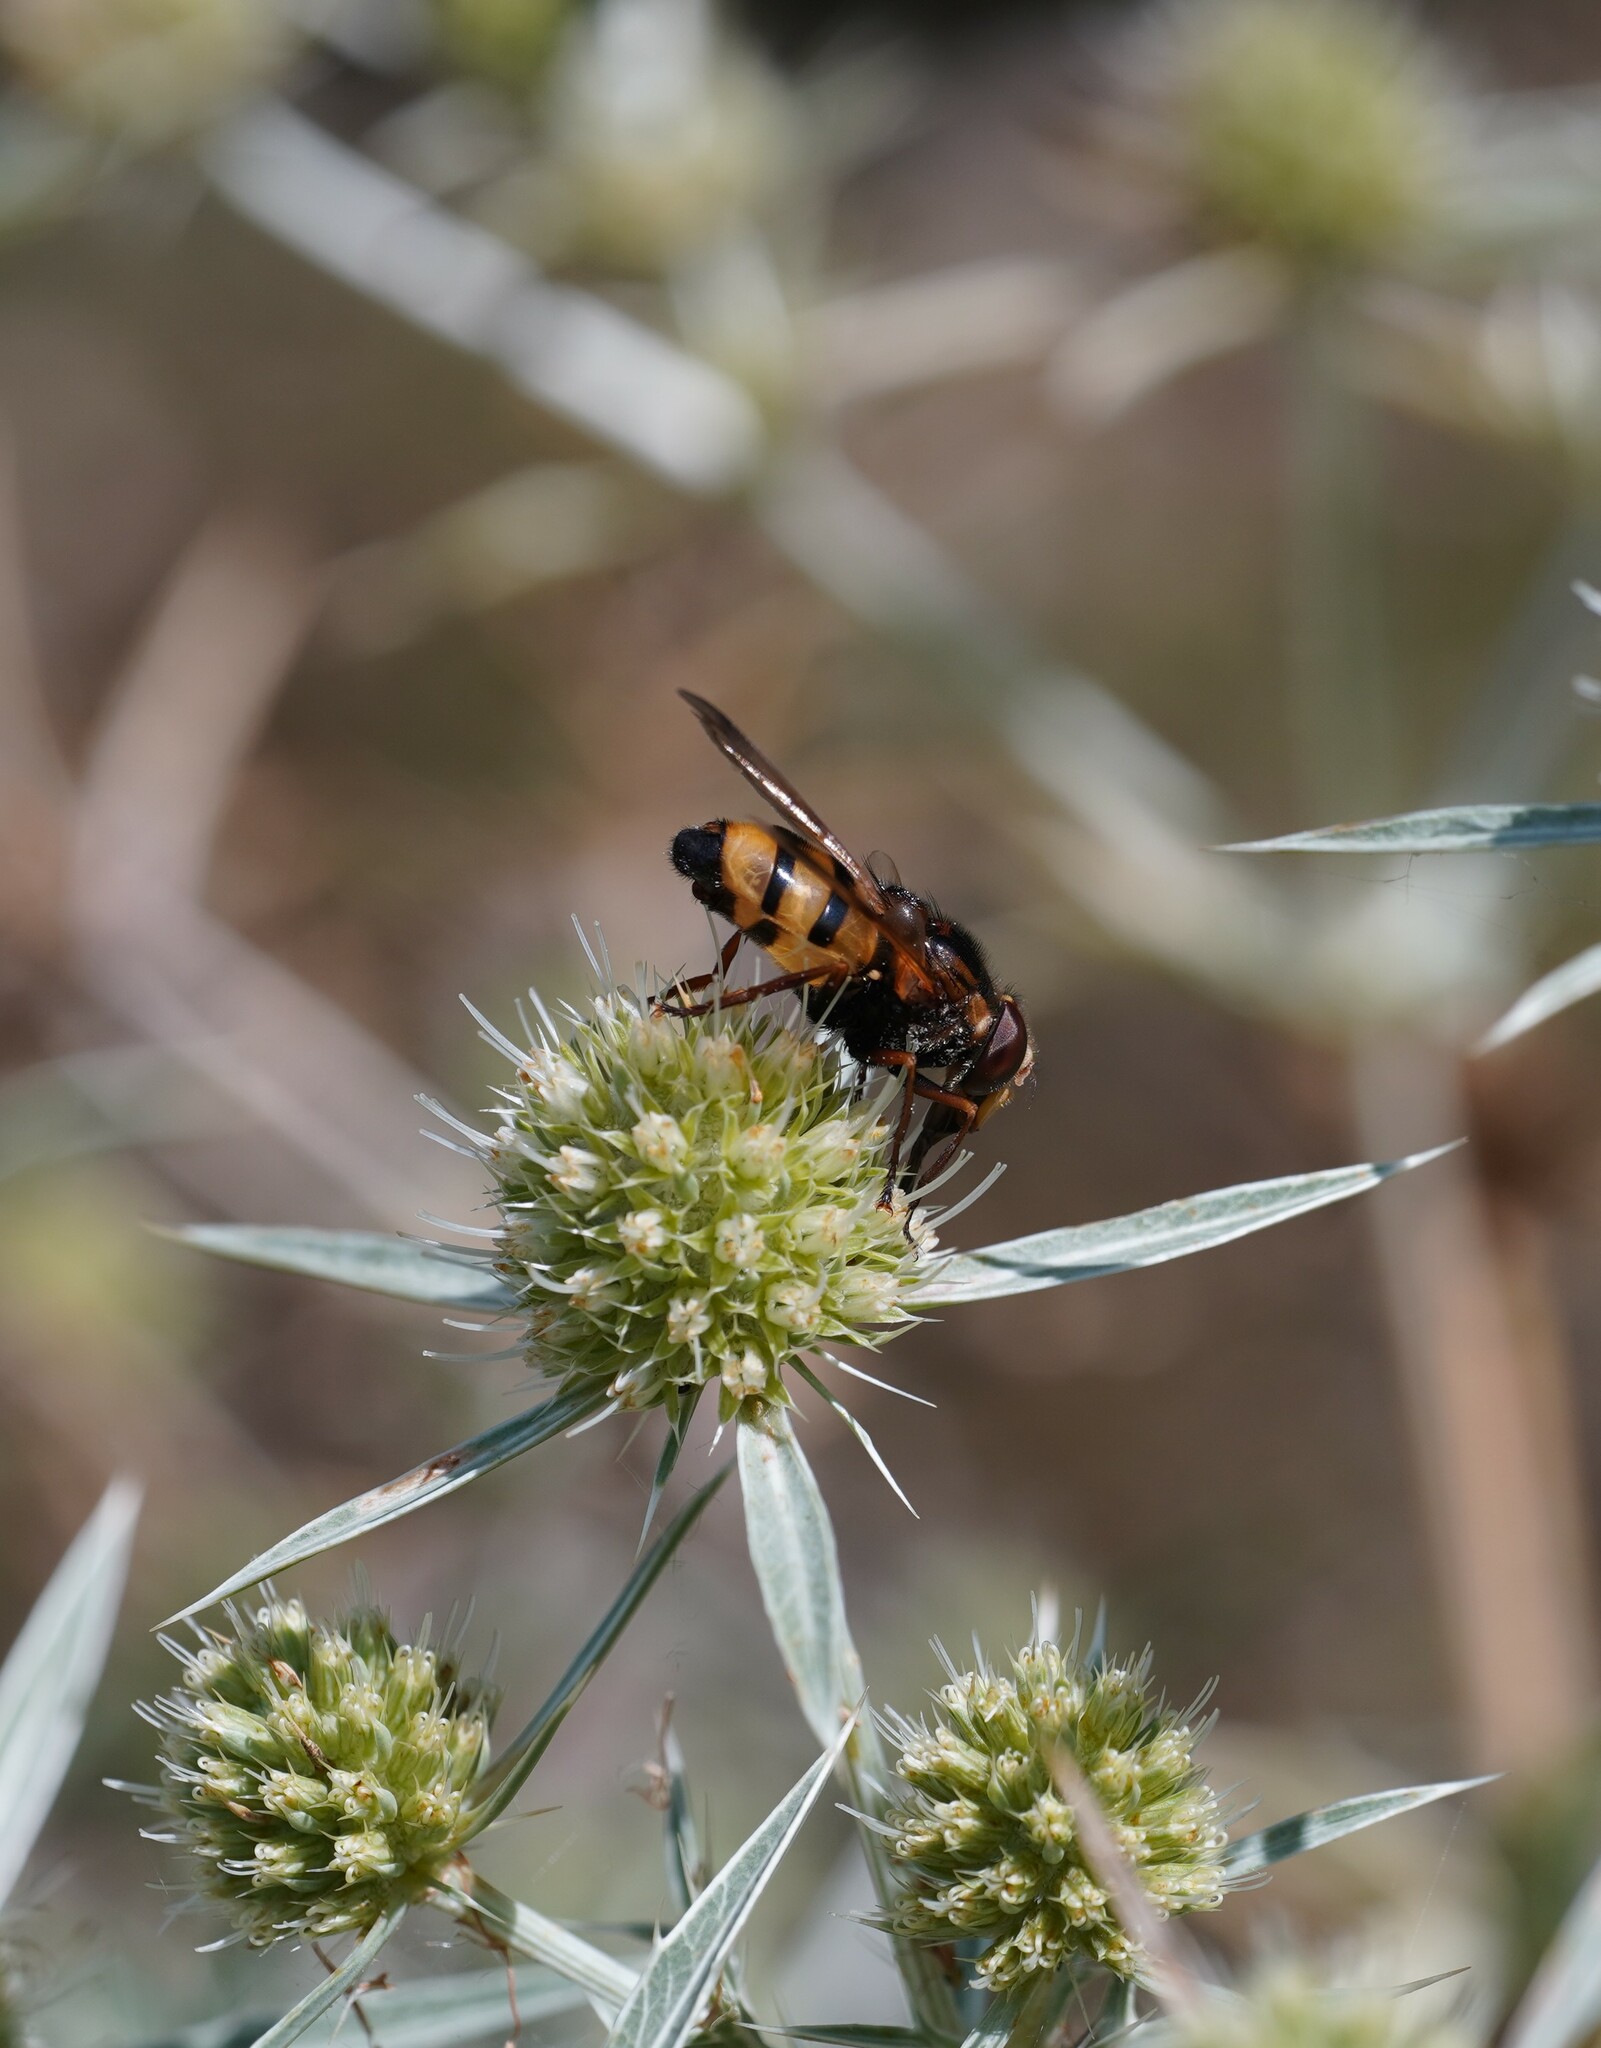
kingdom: Animalia
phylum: Arthropoda
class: Insecta
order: Diptera
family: Syrphidae
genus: Volucella
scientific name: Volucella inanis
